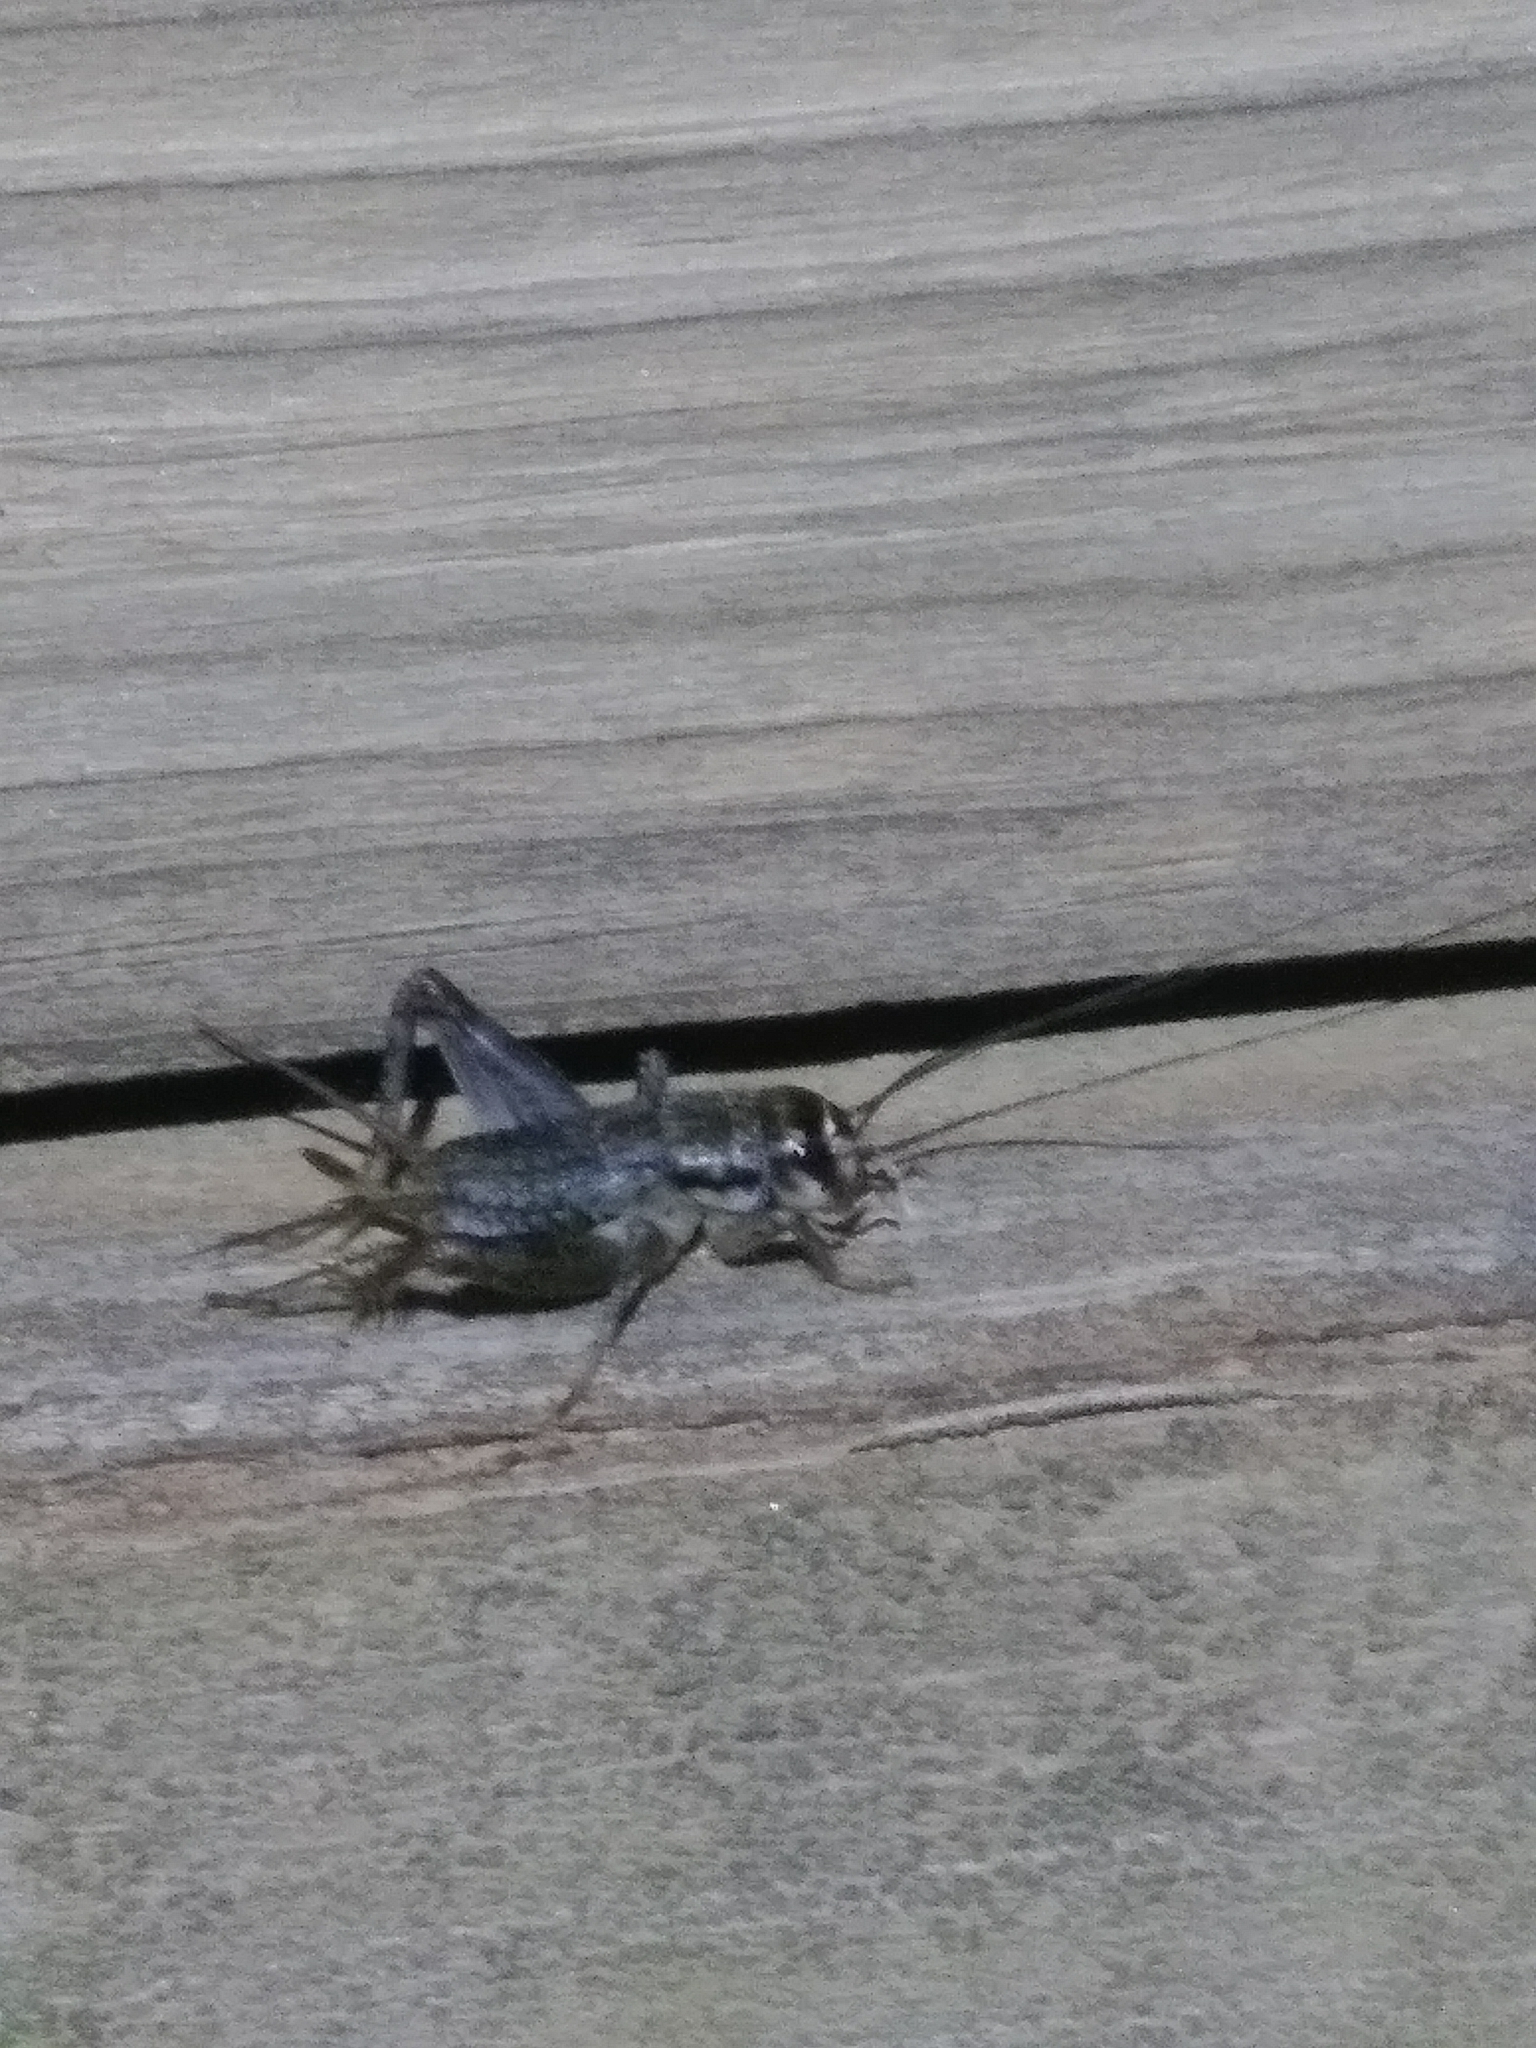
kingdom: Animalia
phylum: Arthropoda
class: Insecta
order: Orthoptera
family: Gryllidae
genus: Velarifictorus
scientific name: Velarifictorus micado
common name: Japanese burrowing cricket
